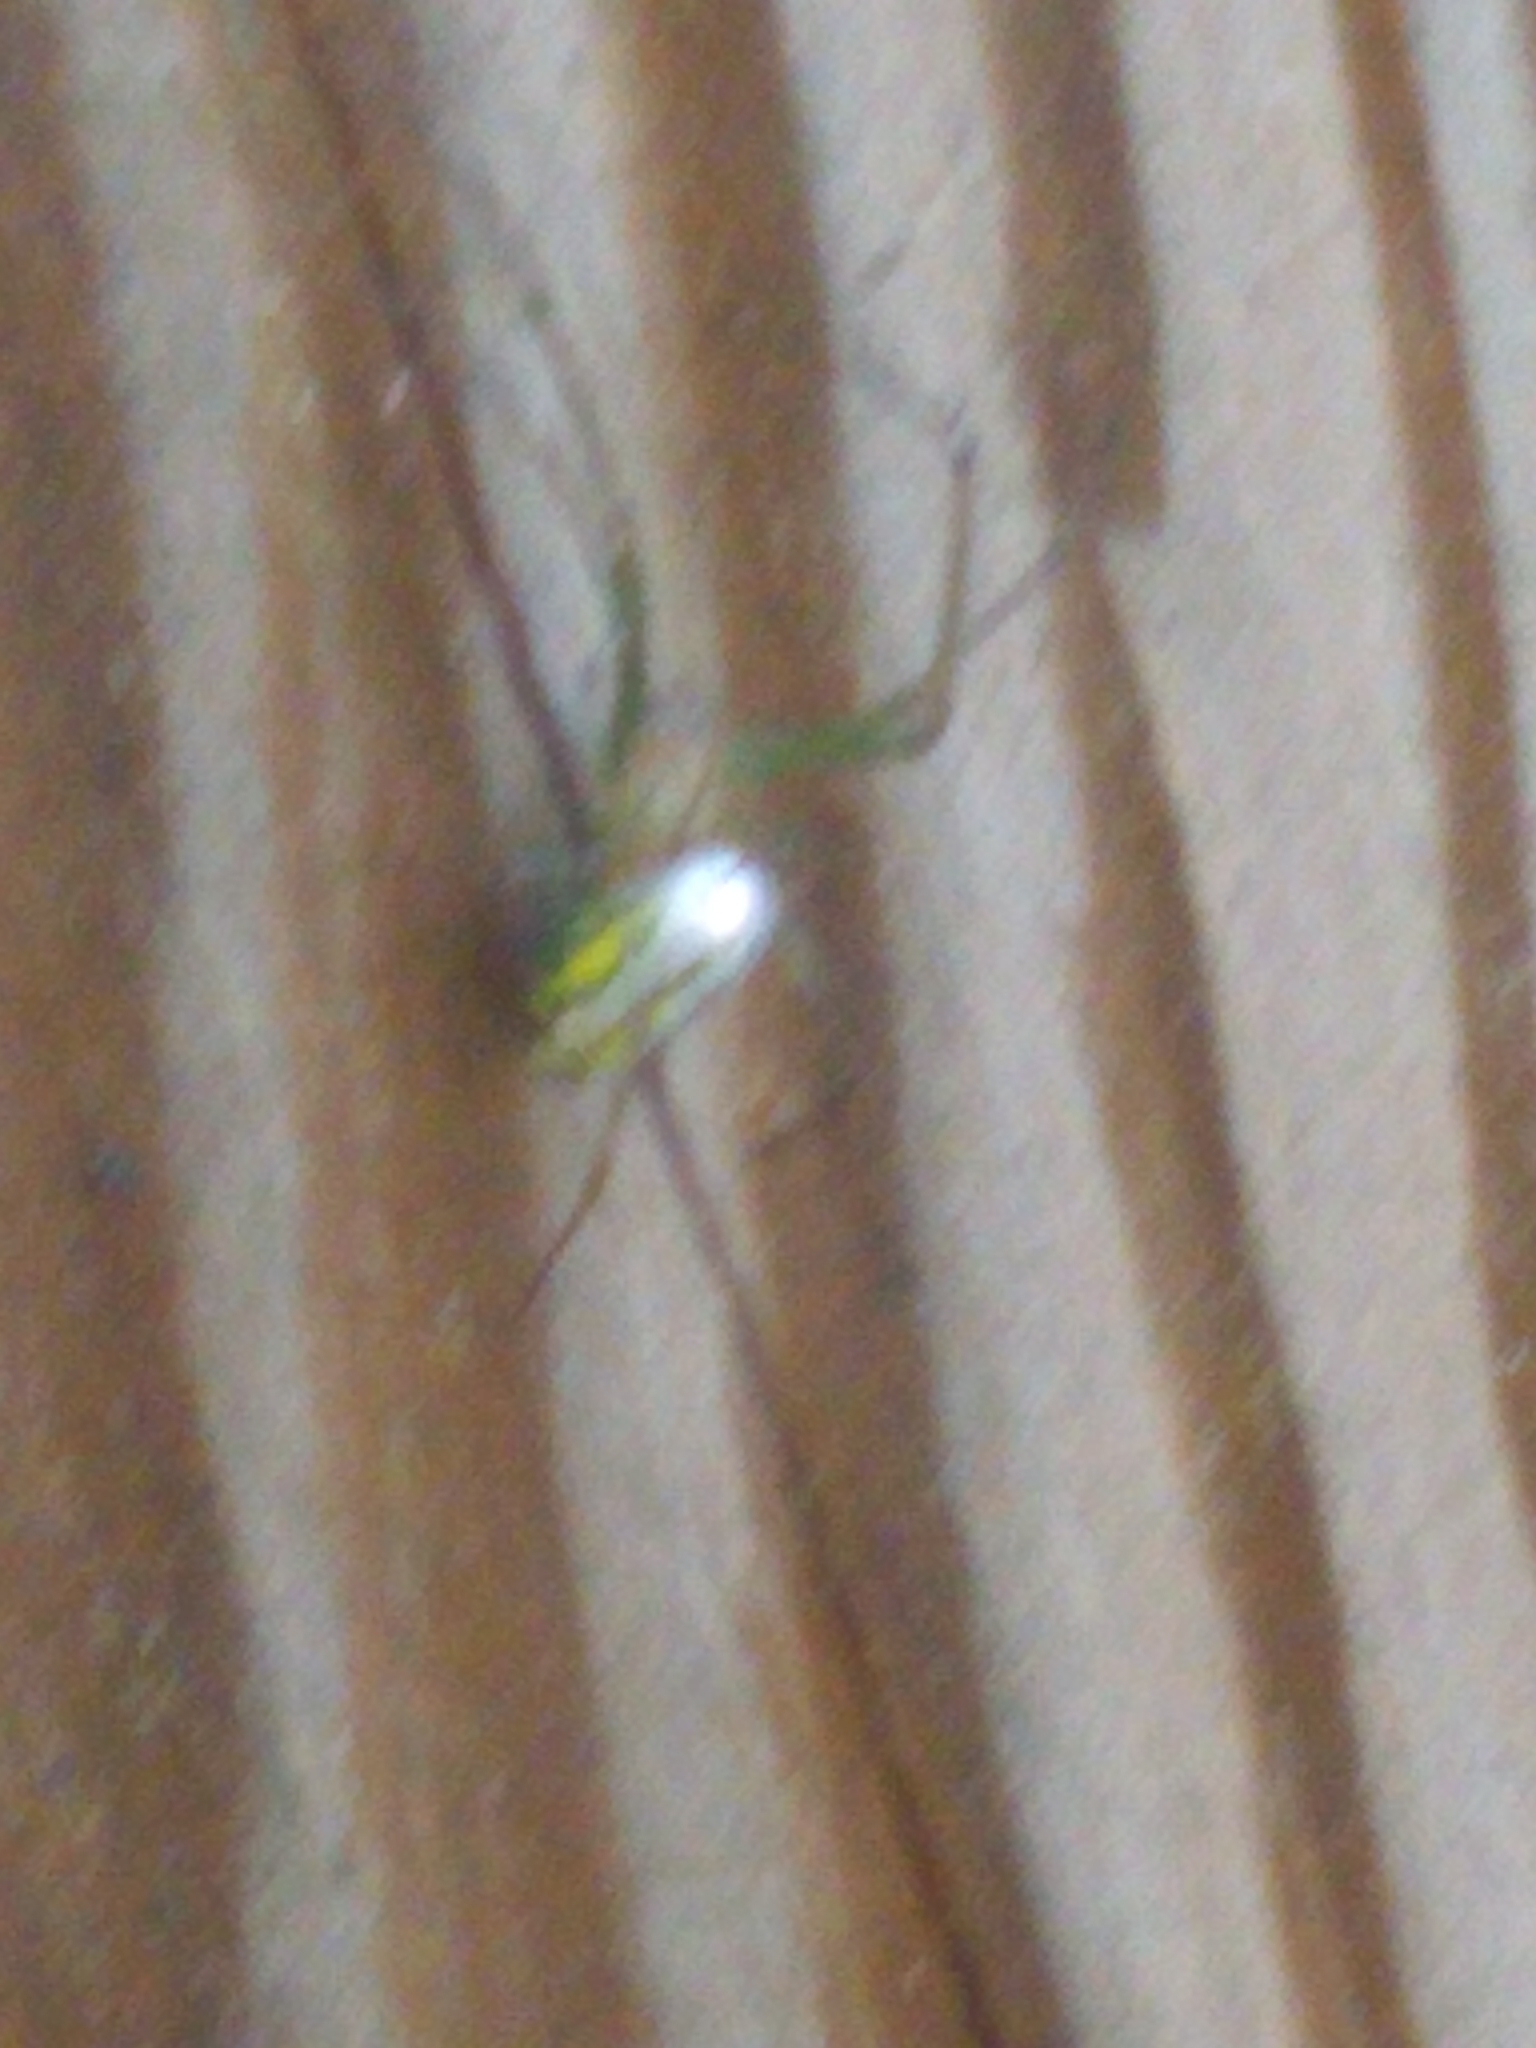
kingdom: Animalia
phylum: Arthropoda
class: Arachnida
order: Araneae
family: Tetragnathidae
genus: Leucauge
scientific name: Leucauge venusta
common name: Longjawed orb weavers
